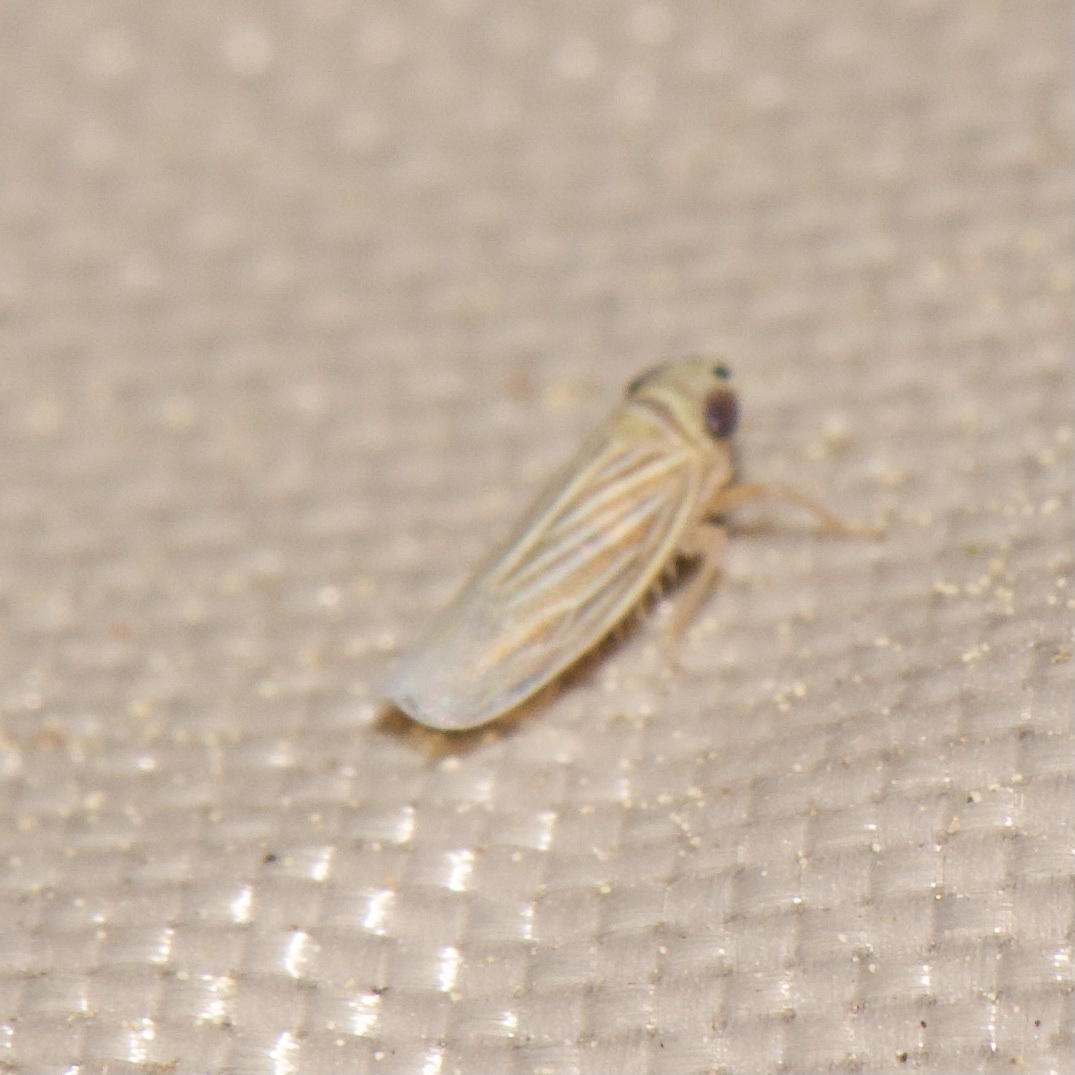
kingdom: Animalia
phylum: Arthropoda
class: Insecta
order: Hemiptera
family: Cicadellidae
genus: Graminella
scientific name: Graminella villicus
